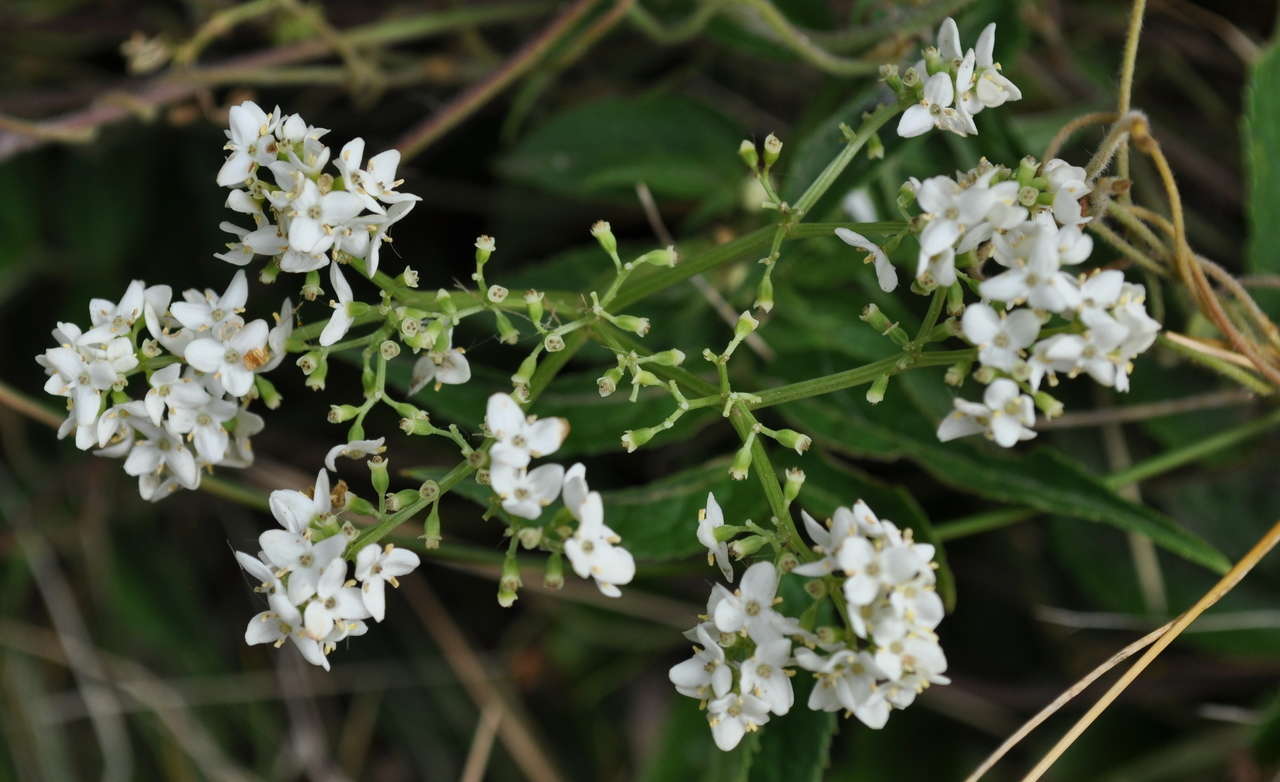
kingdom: Plantae
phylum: Tracheophyta
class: Magnoliopsida
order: Dipsacales
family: Viburnaceae
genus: Sambucus
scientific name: Sambucus gaudichaudiana
